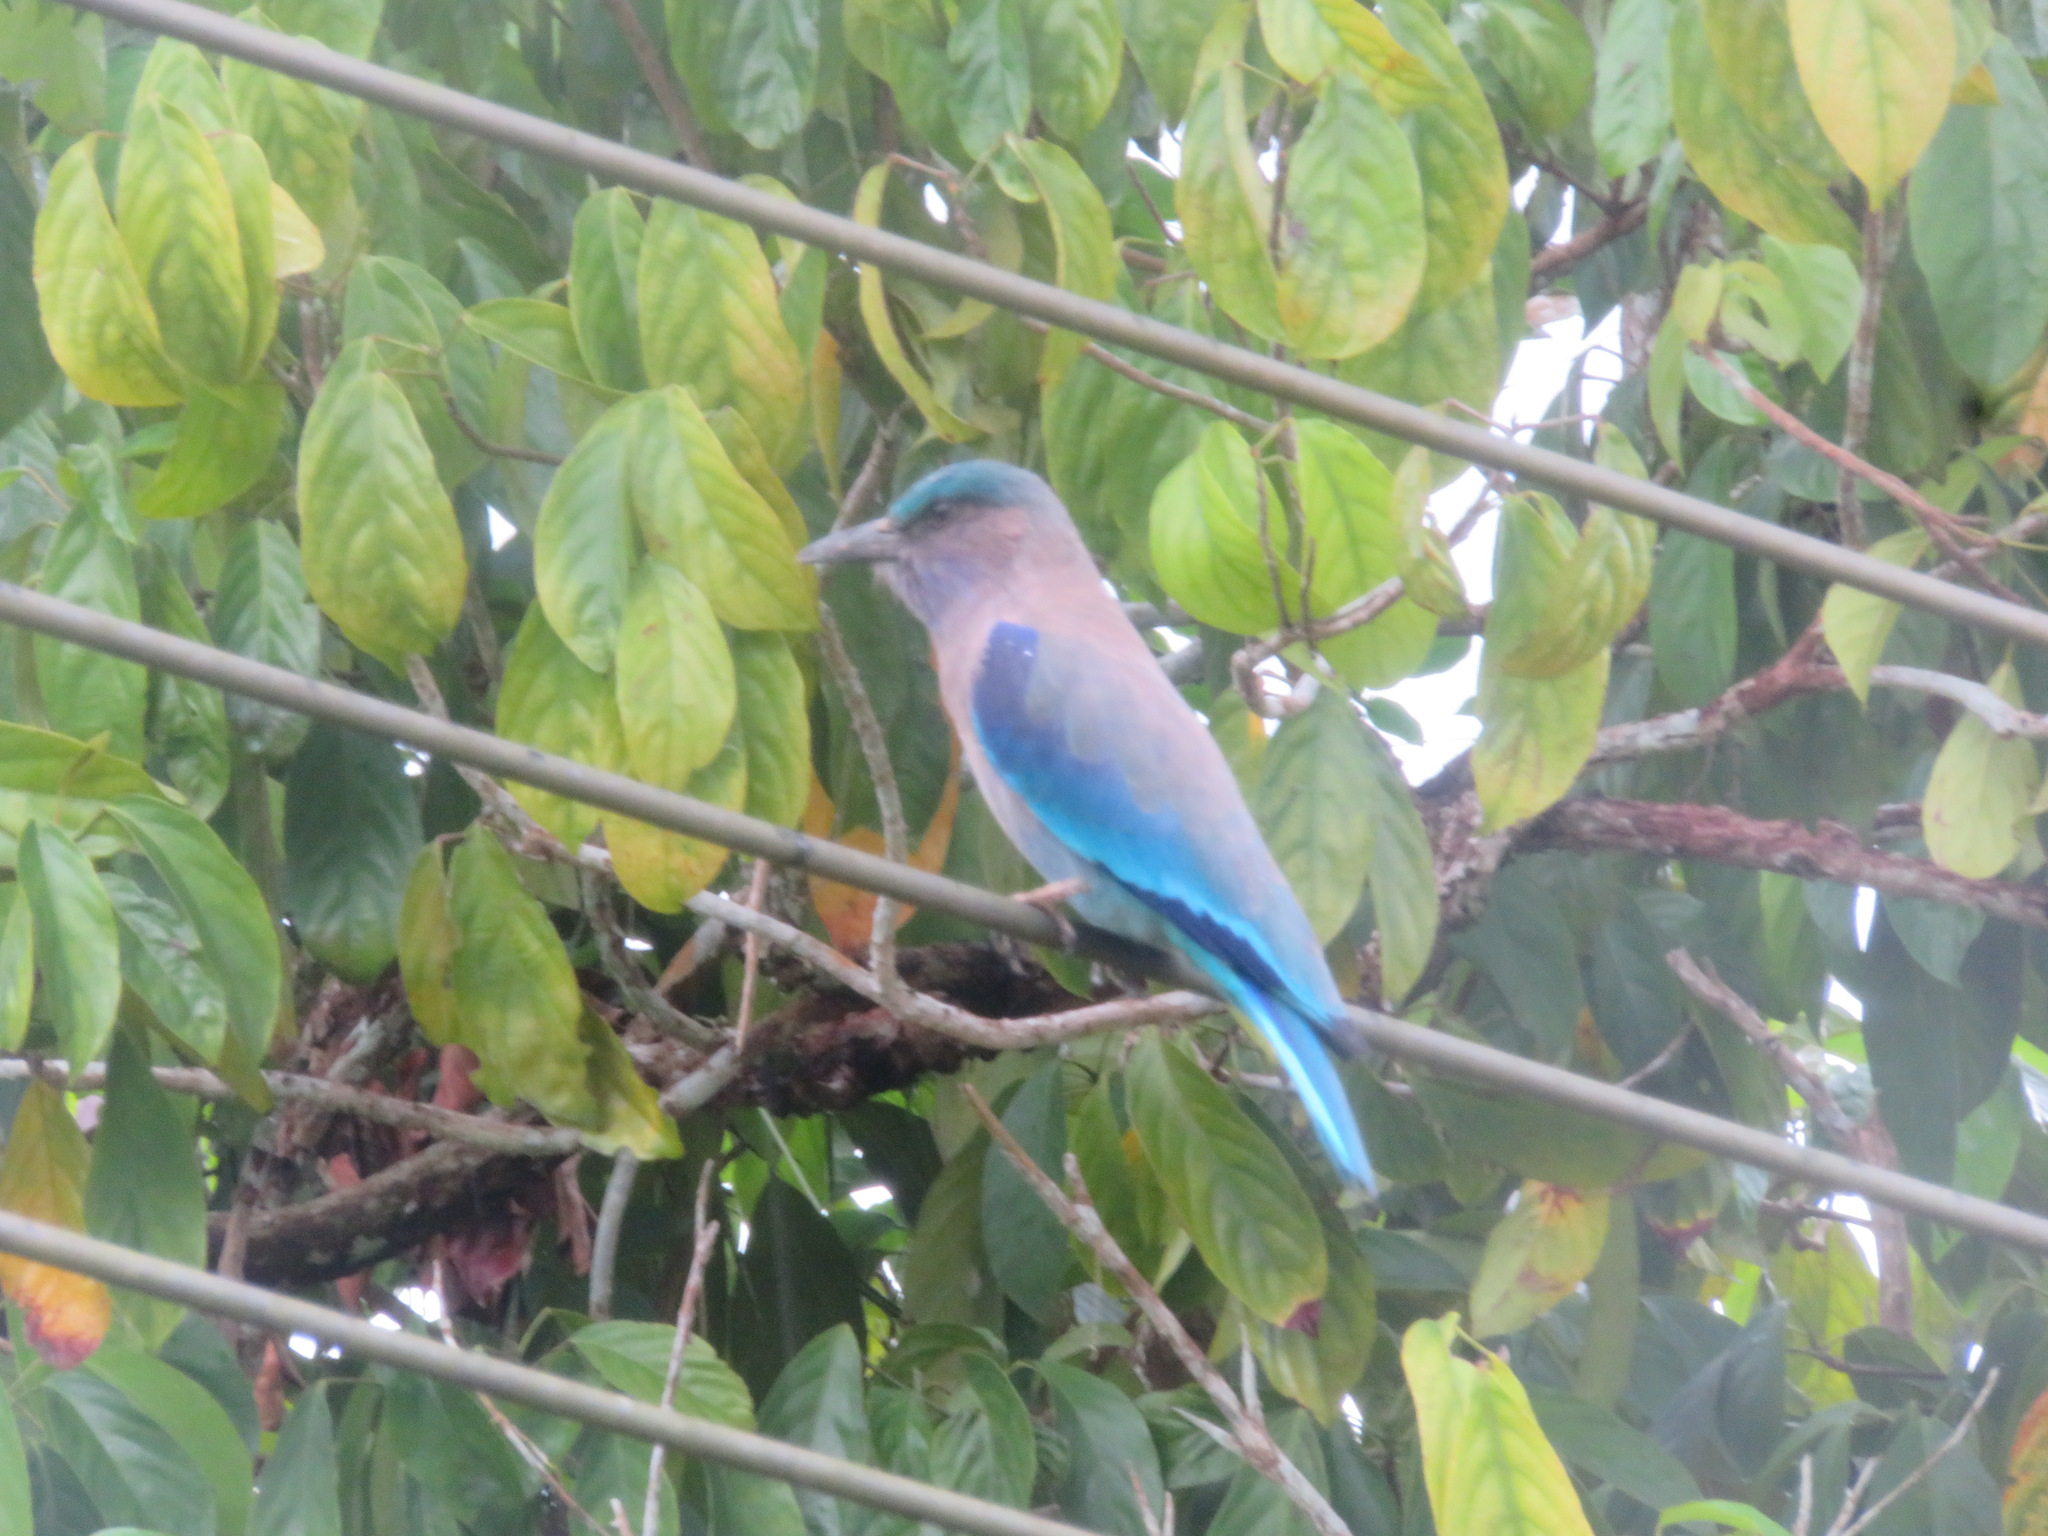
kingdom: Animalia
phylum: Chordata
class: Aves
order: Coraciiformes
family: Coraciidae
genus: Coracias
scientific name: Coracias affinis
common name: Indochinese roller
